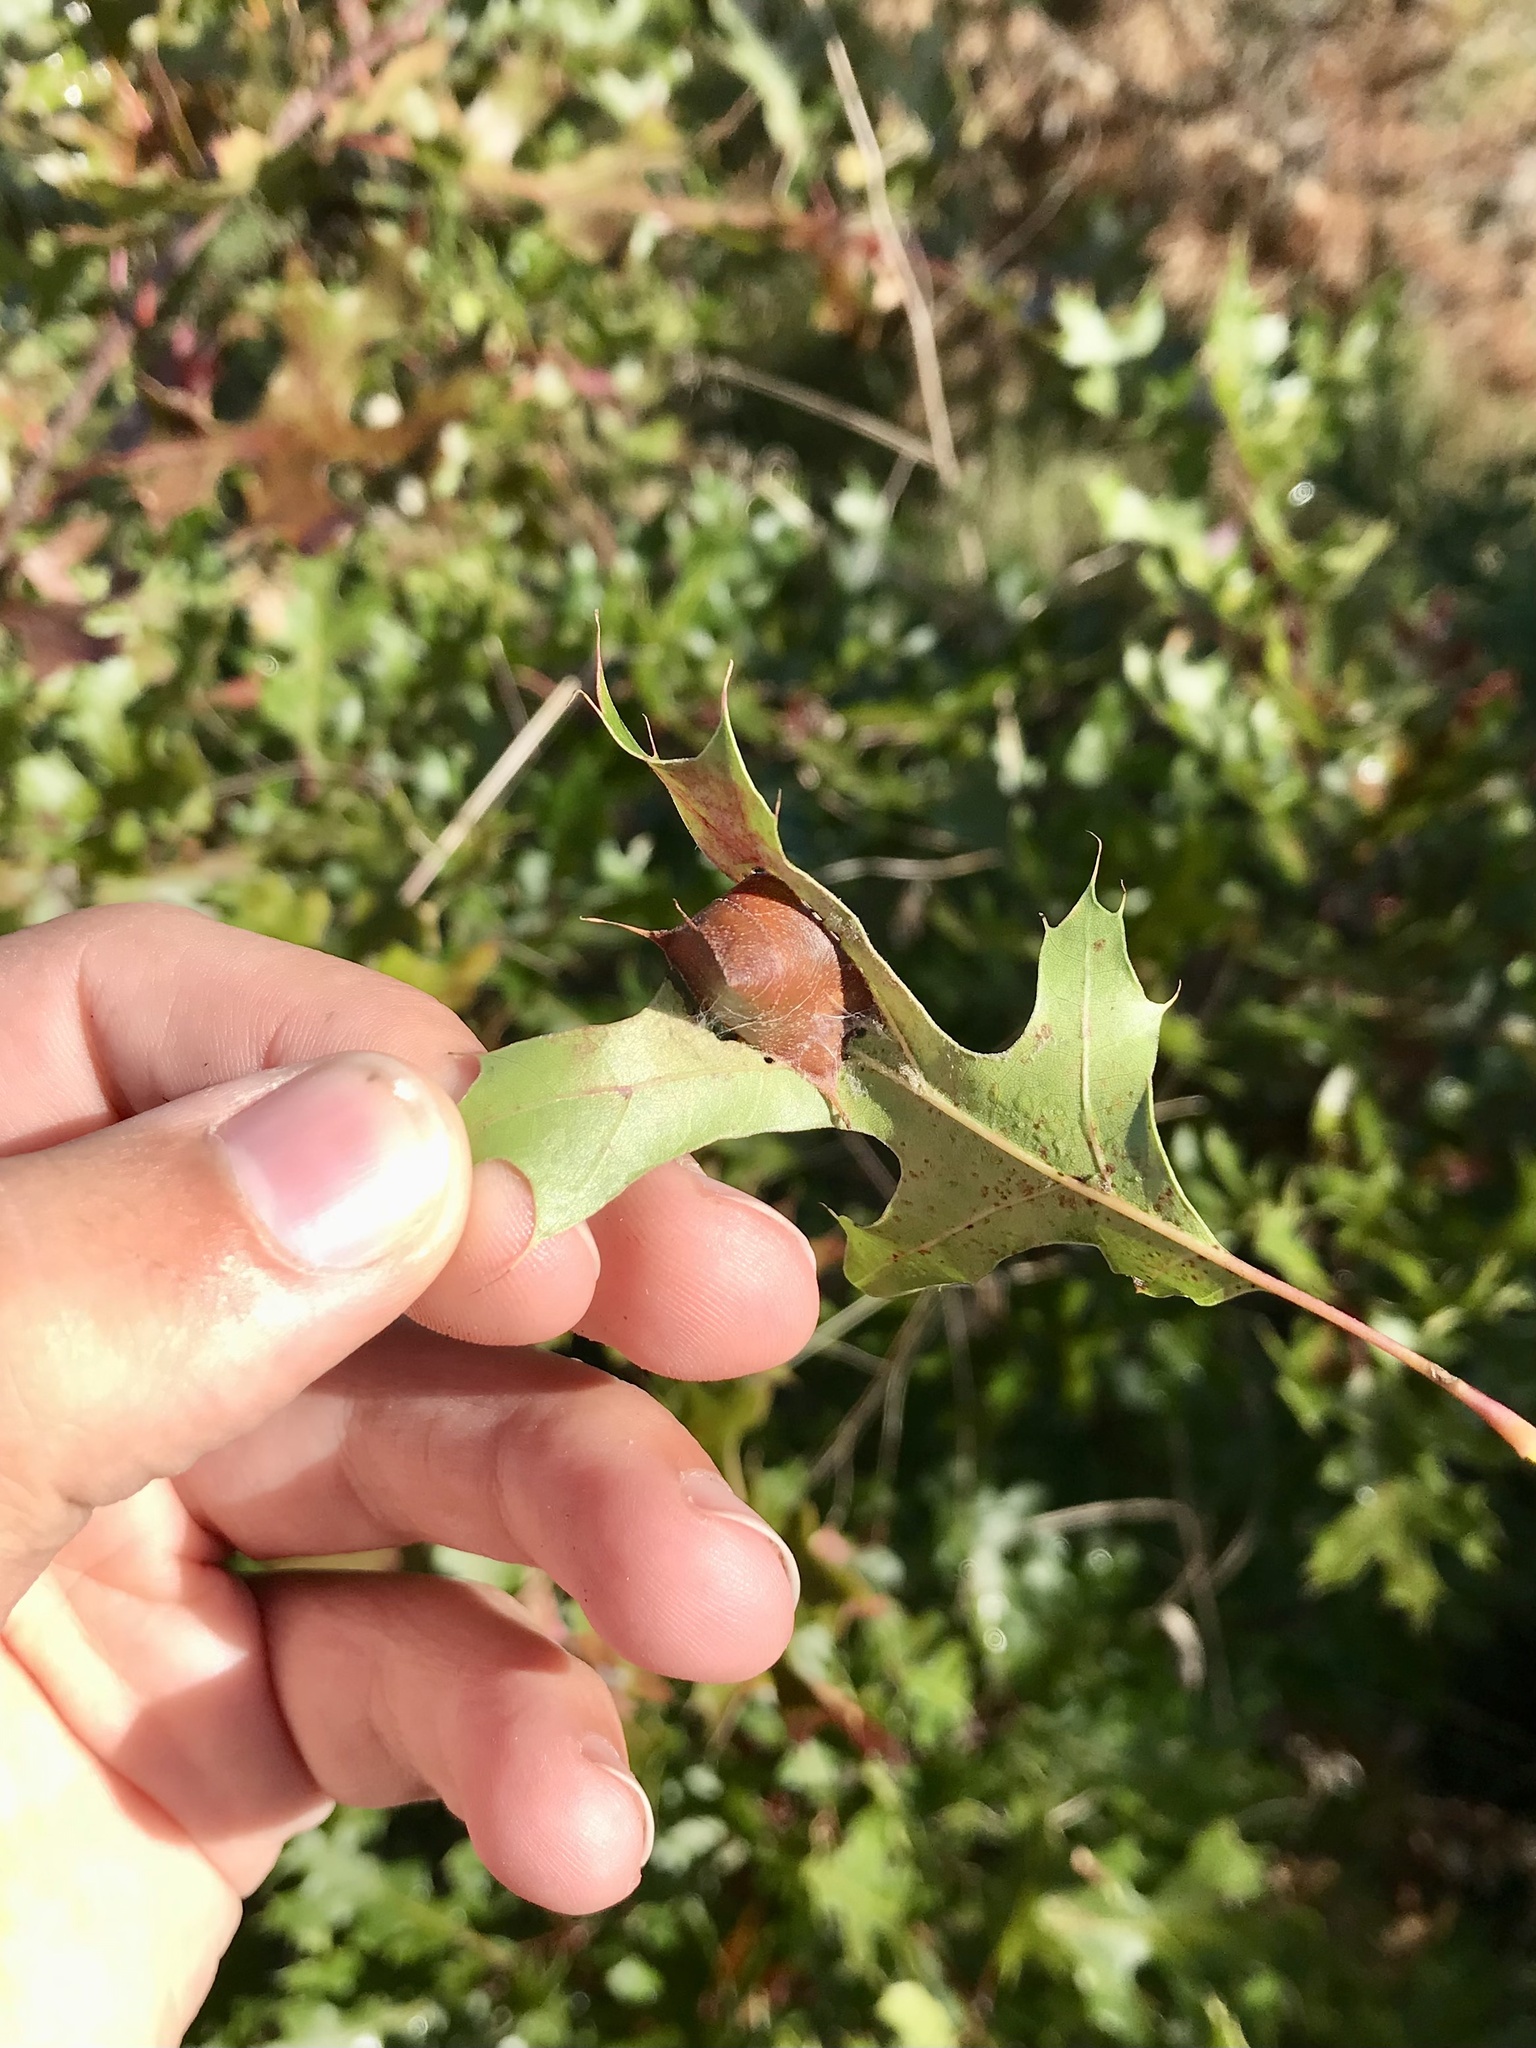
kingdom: Animalia
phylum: Arthropoda
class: Insecta
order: Lepidoptera
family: Gracillariidae
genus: Povolnya
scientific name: Povolnya quercinigrella
